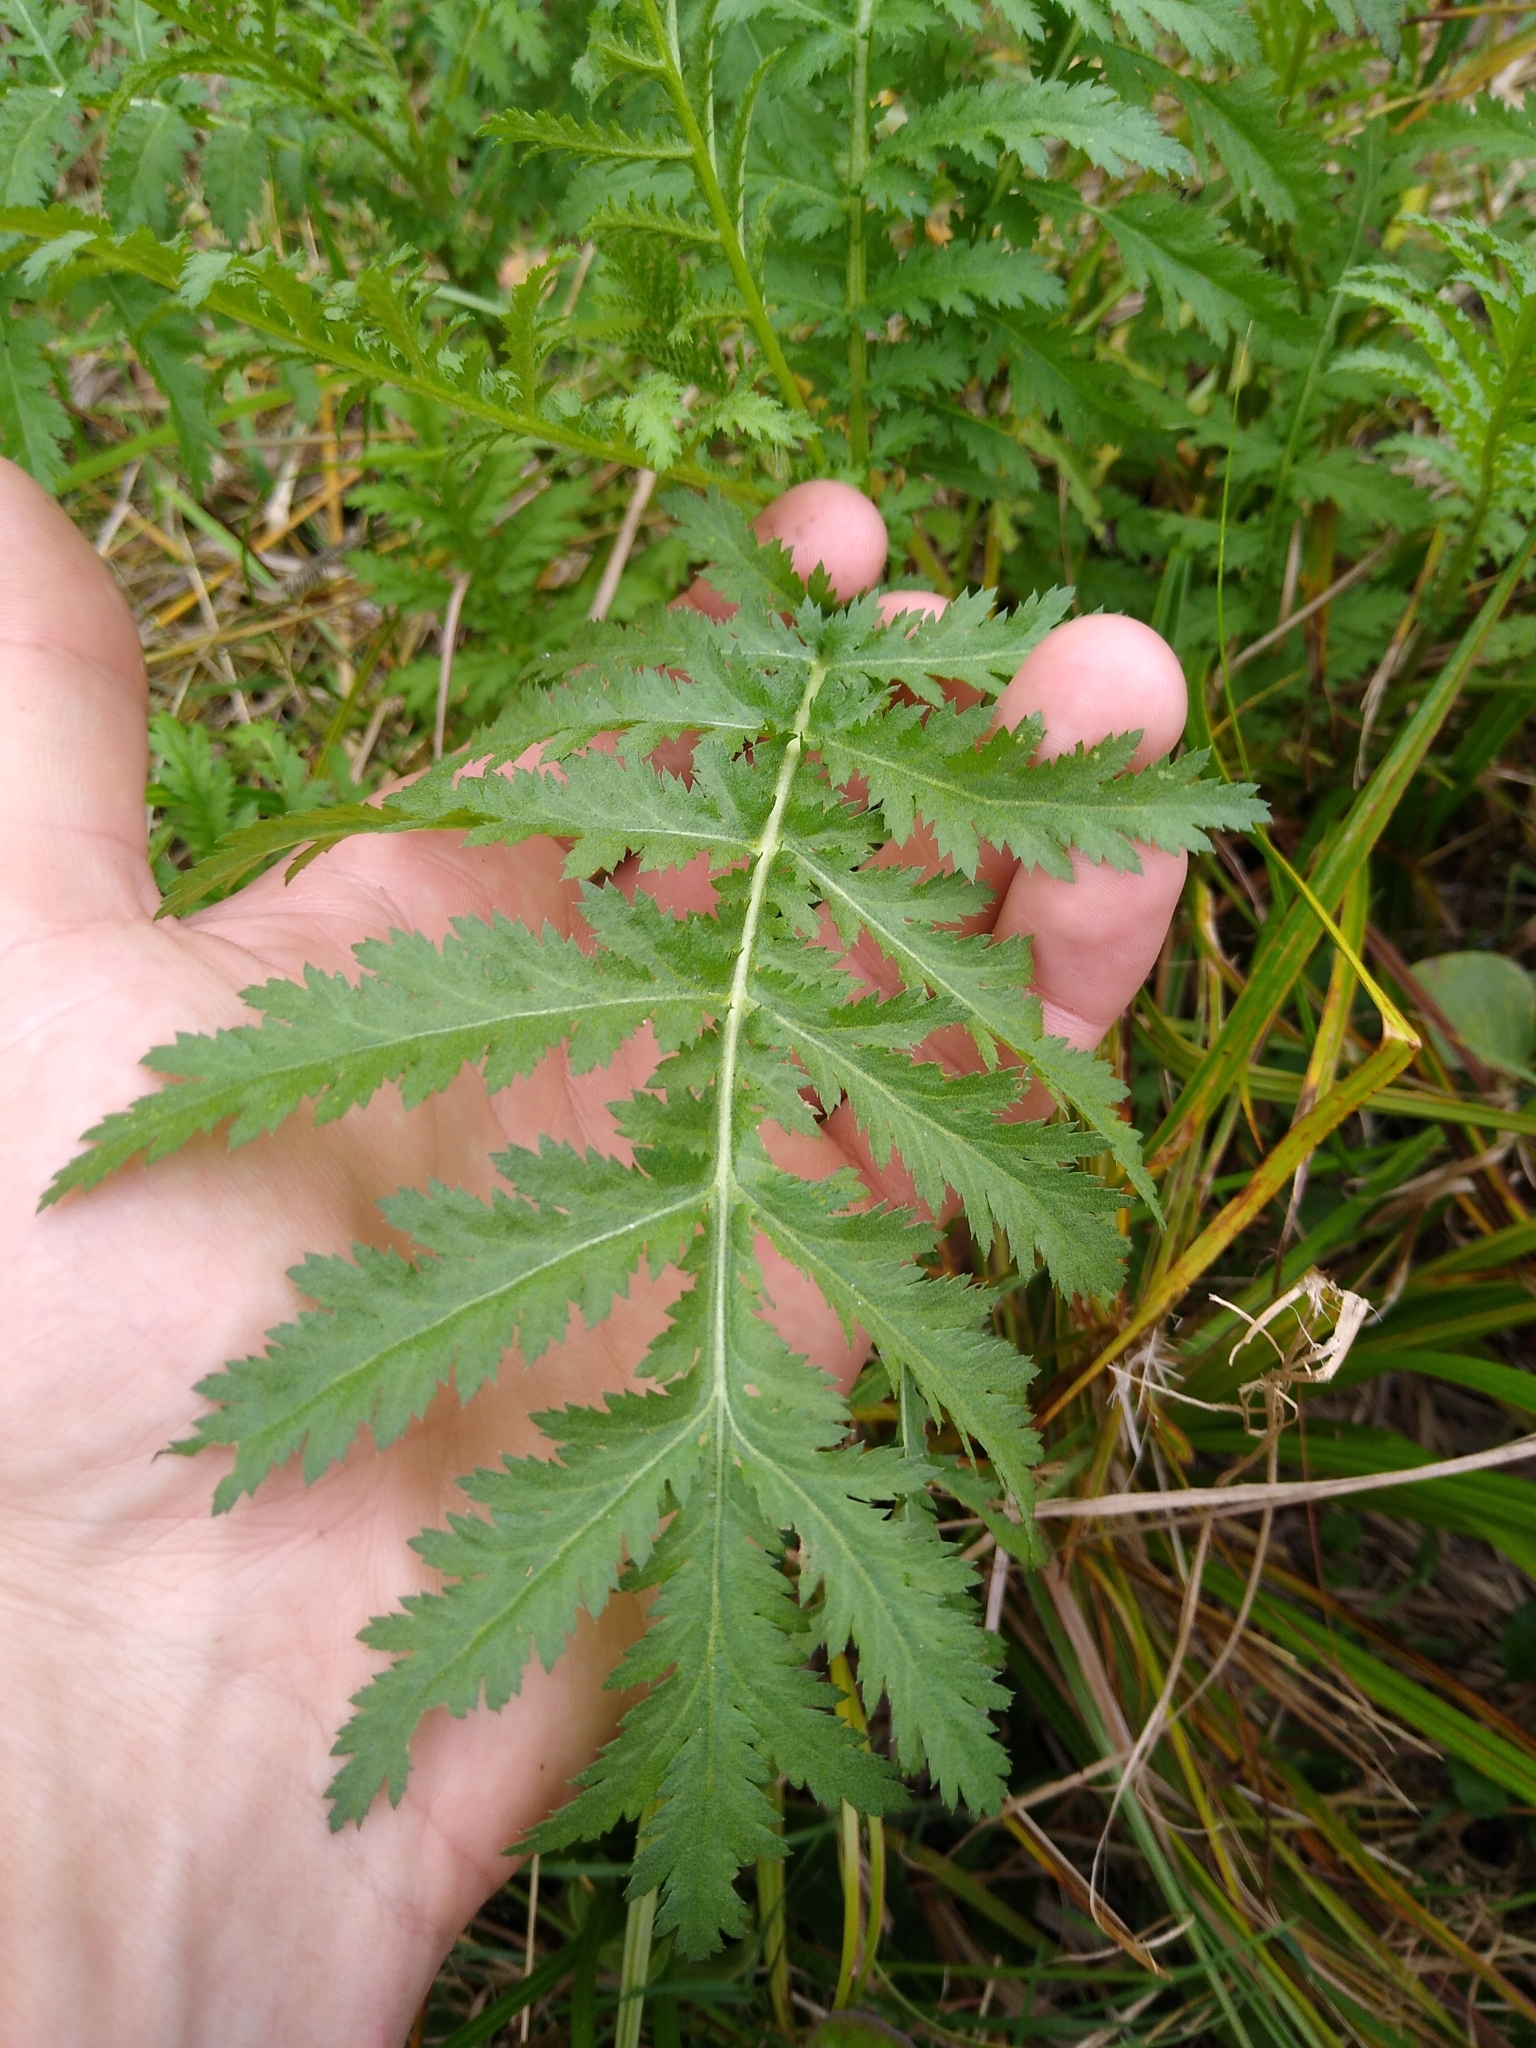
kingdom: Plantae
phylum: Tracheophyta
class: Magnoliopsida
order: Asterales
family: Asteraceae
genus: Tanacetum
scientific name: Tanacetum vulgare
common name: Common tansy
